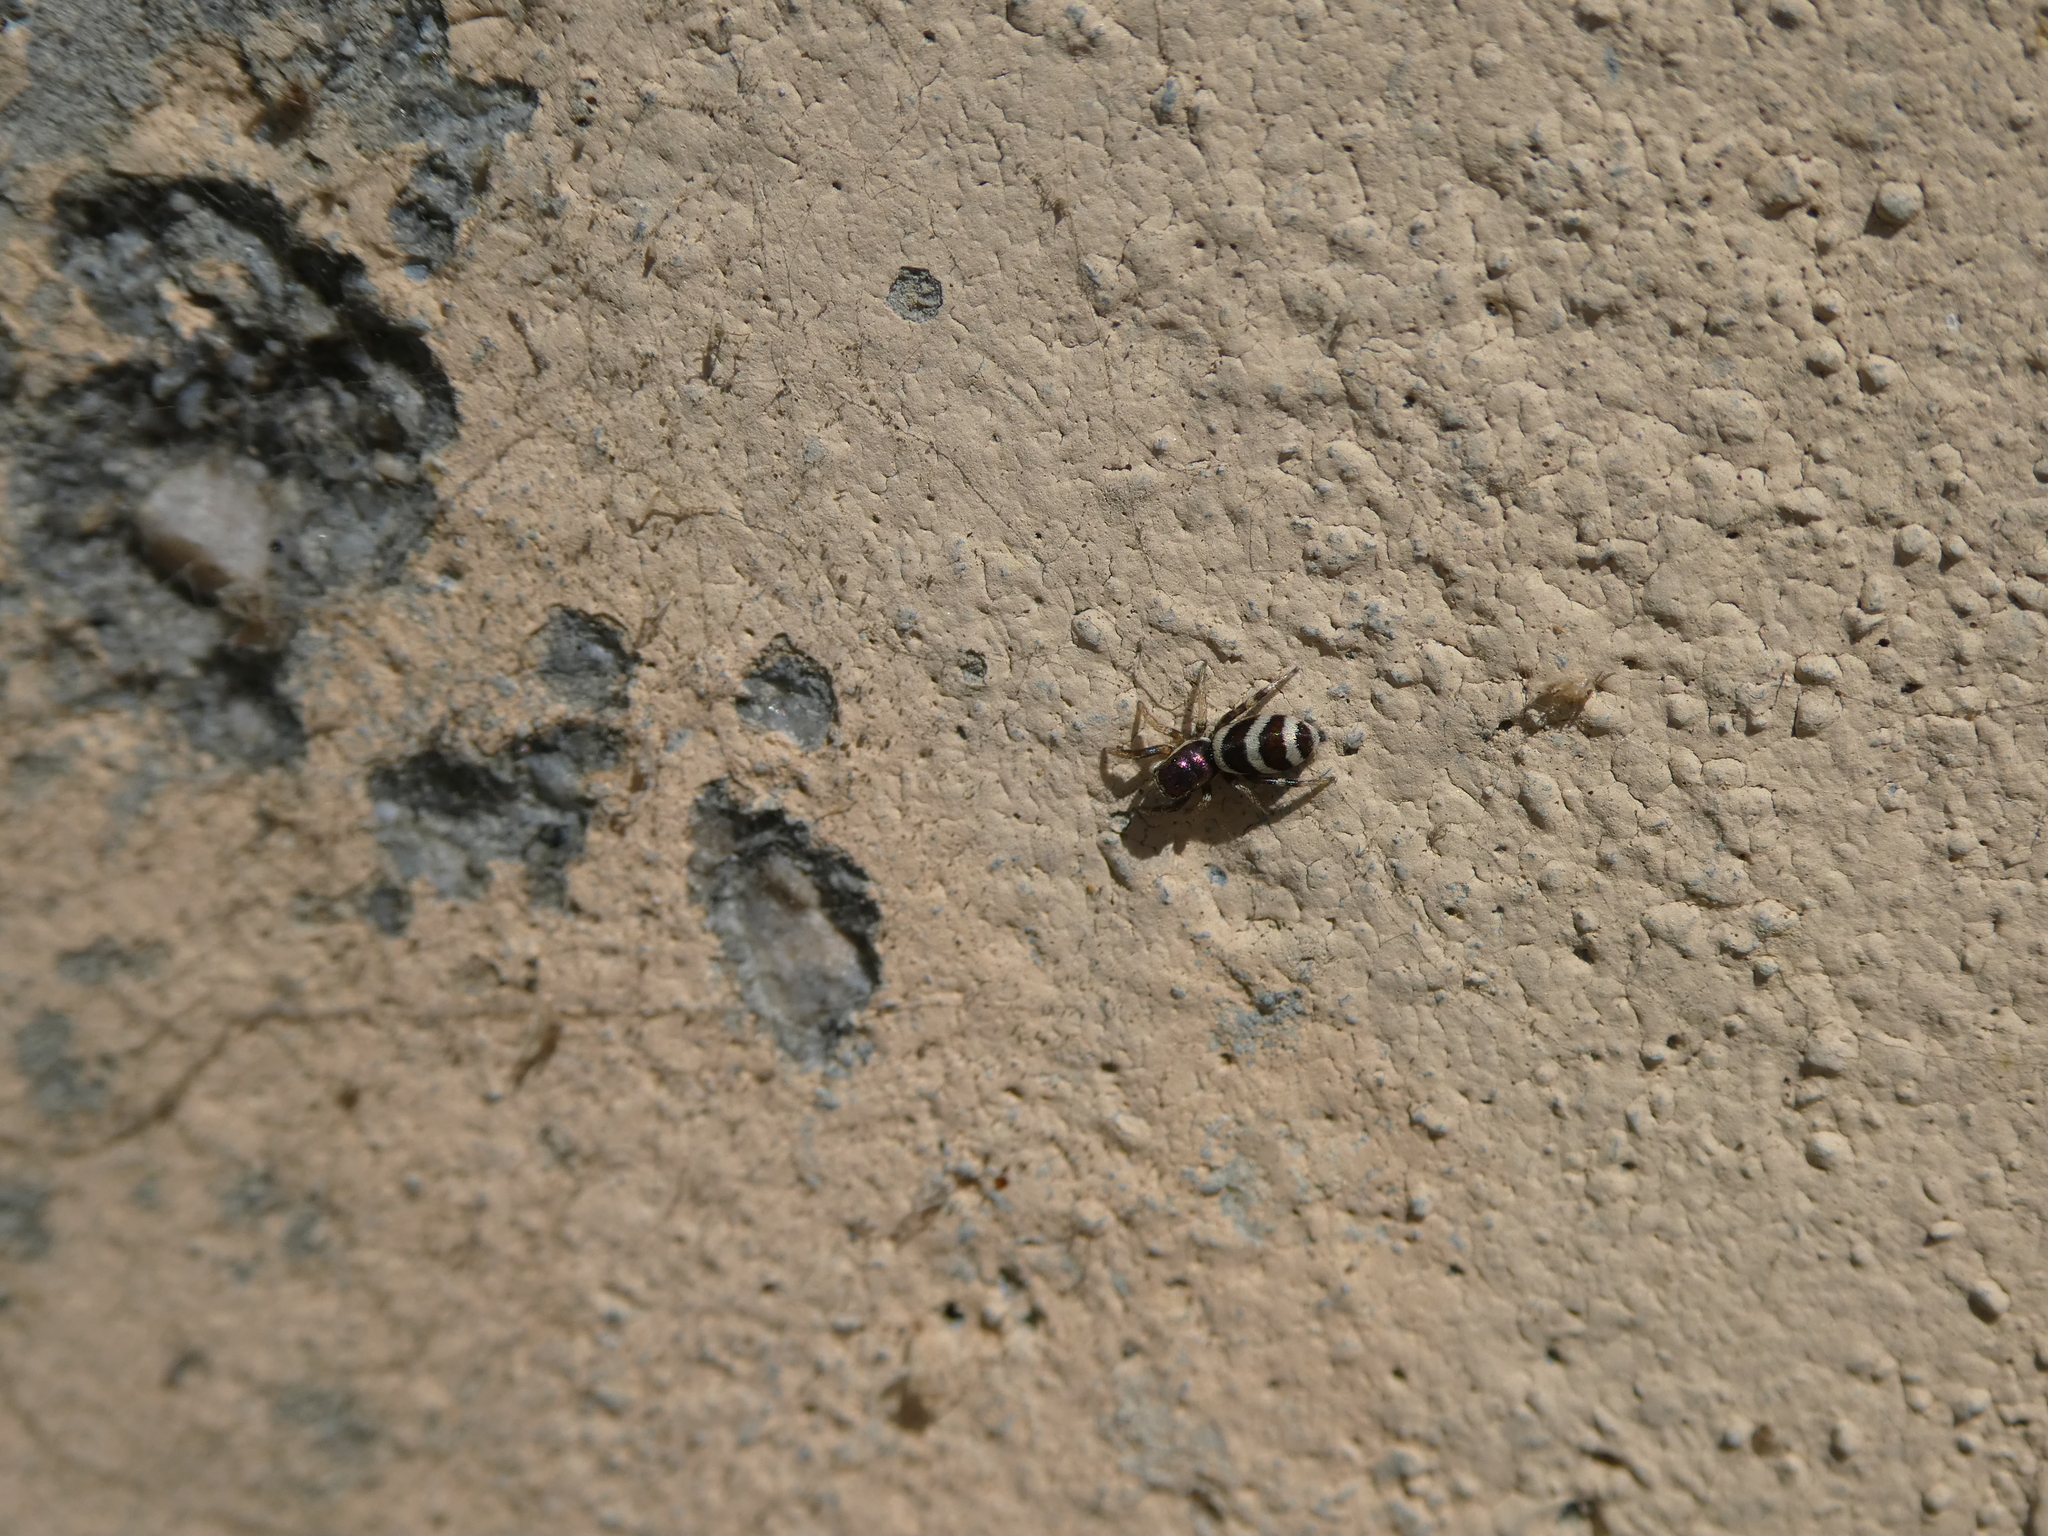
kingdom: Animalia
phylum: Arthropoda
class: Arachnida
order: Araneae
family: Salticidae
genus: Salticus
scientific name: Salticus palpalis
